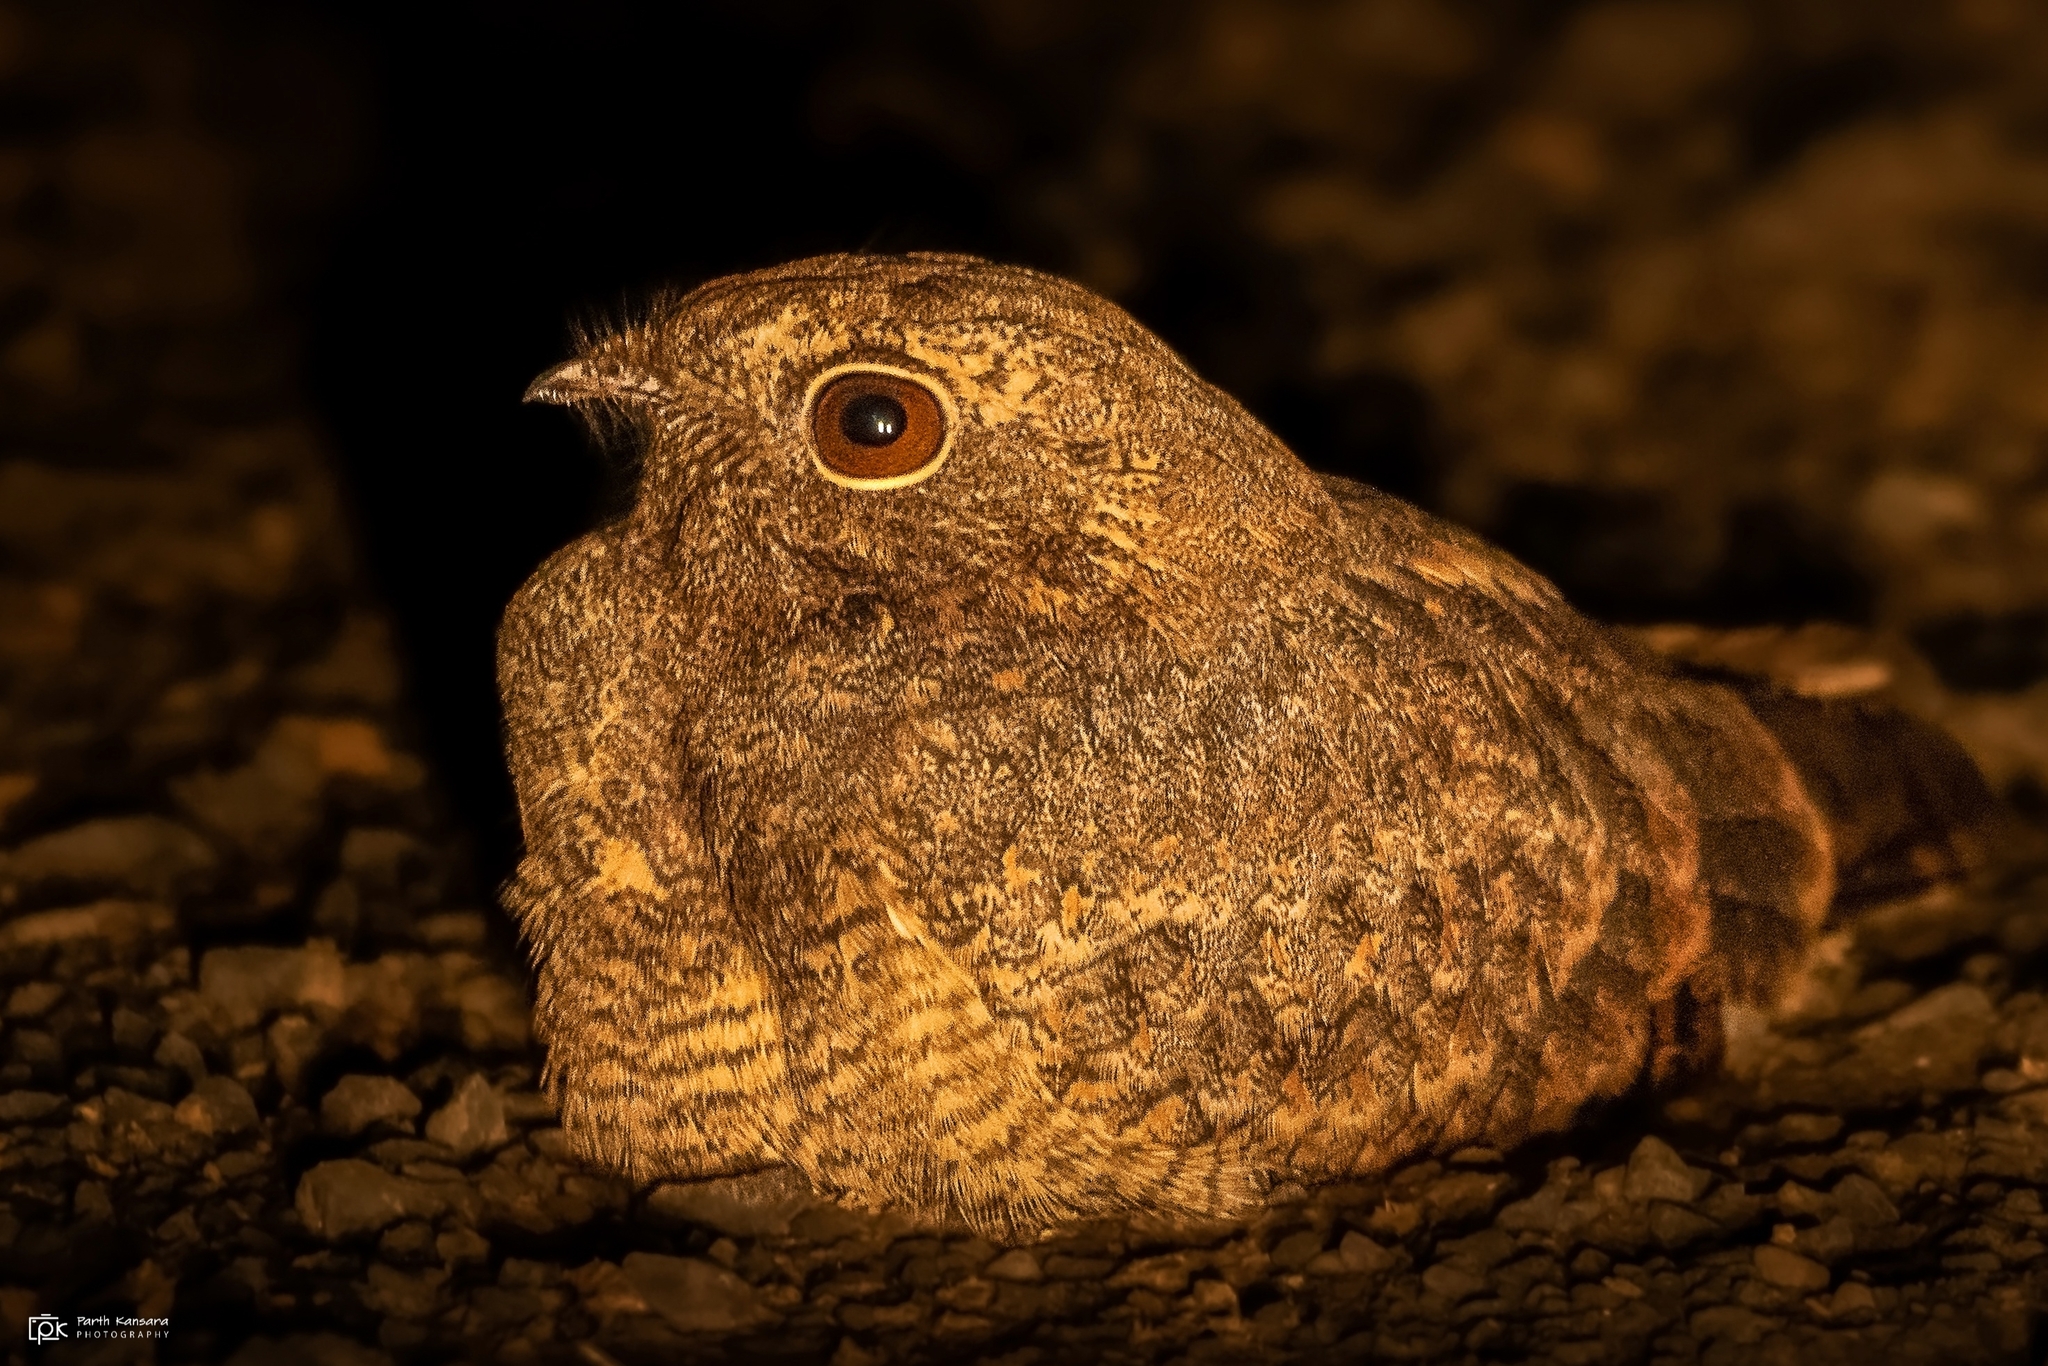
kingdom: Animalia
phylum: Chordata
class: Aves
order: Caprimulgiformes
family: Caprimulgidae
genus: Caprimulgus
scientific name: Caprimulgus mahrattensis
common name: Sykes's nightjar
